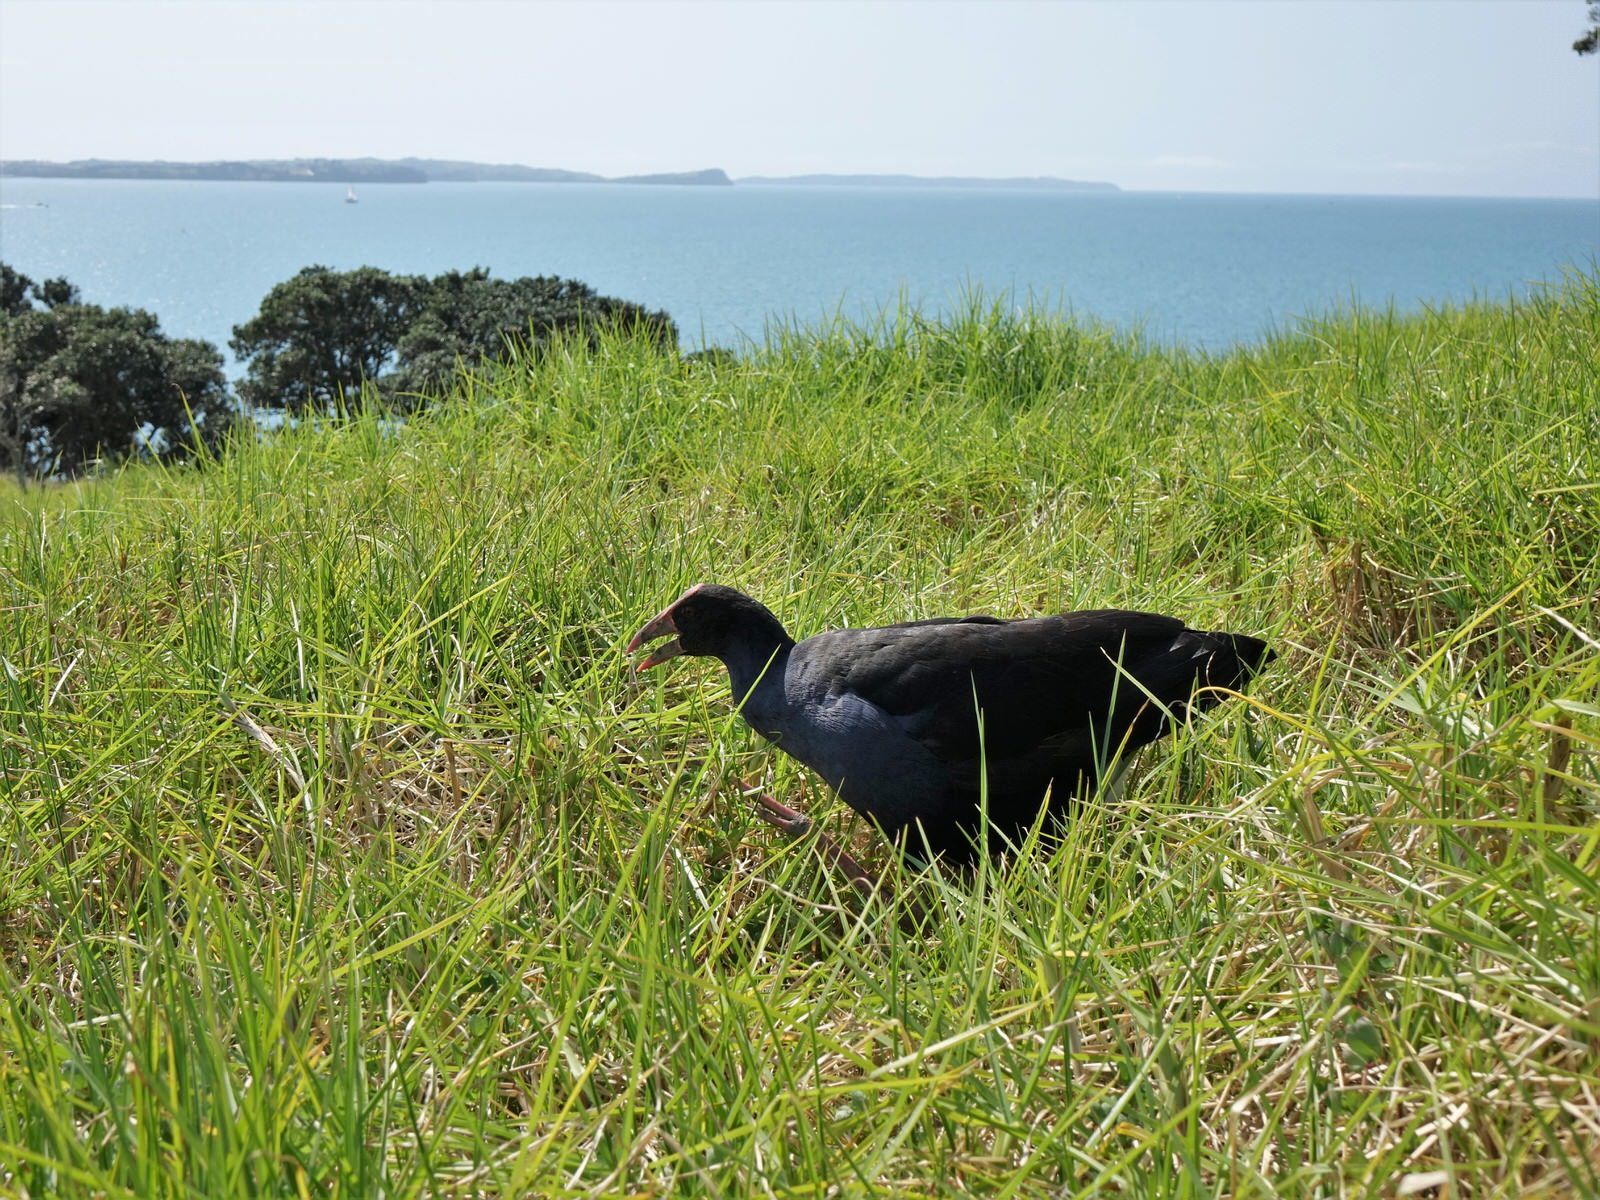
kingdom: Animalia
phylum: Chordata
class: Aves
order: Gruiformes
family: Rallidae
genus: Porphyrio
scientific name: Porphyrio melanotus
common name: Australasian swamphen
